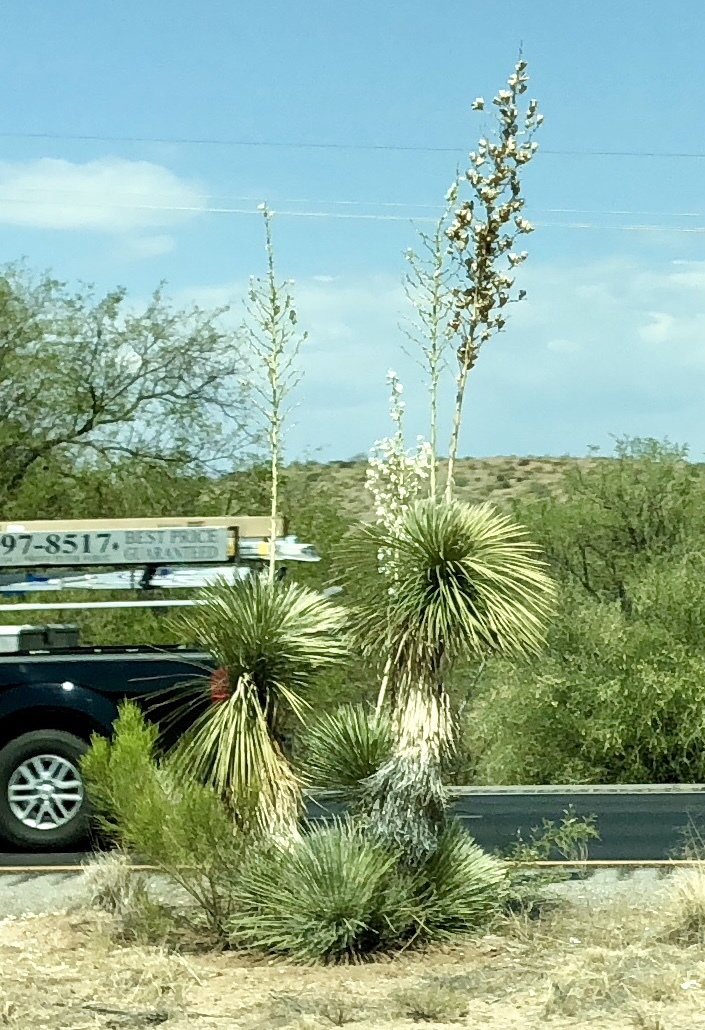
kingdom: Plantae
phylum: Tracheophyta
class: Liliopsida
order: Asparagales
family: Asparagaceae
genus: Yucca
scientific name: Yucca elata
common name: Palmella
